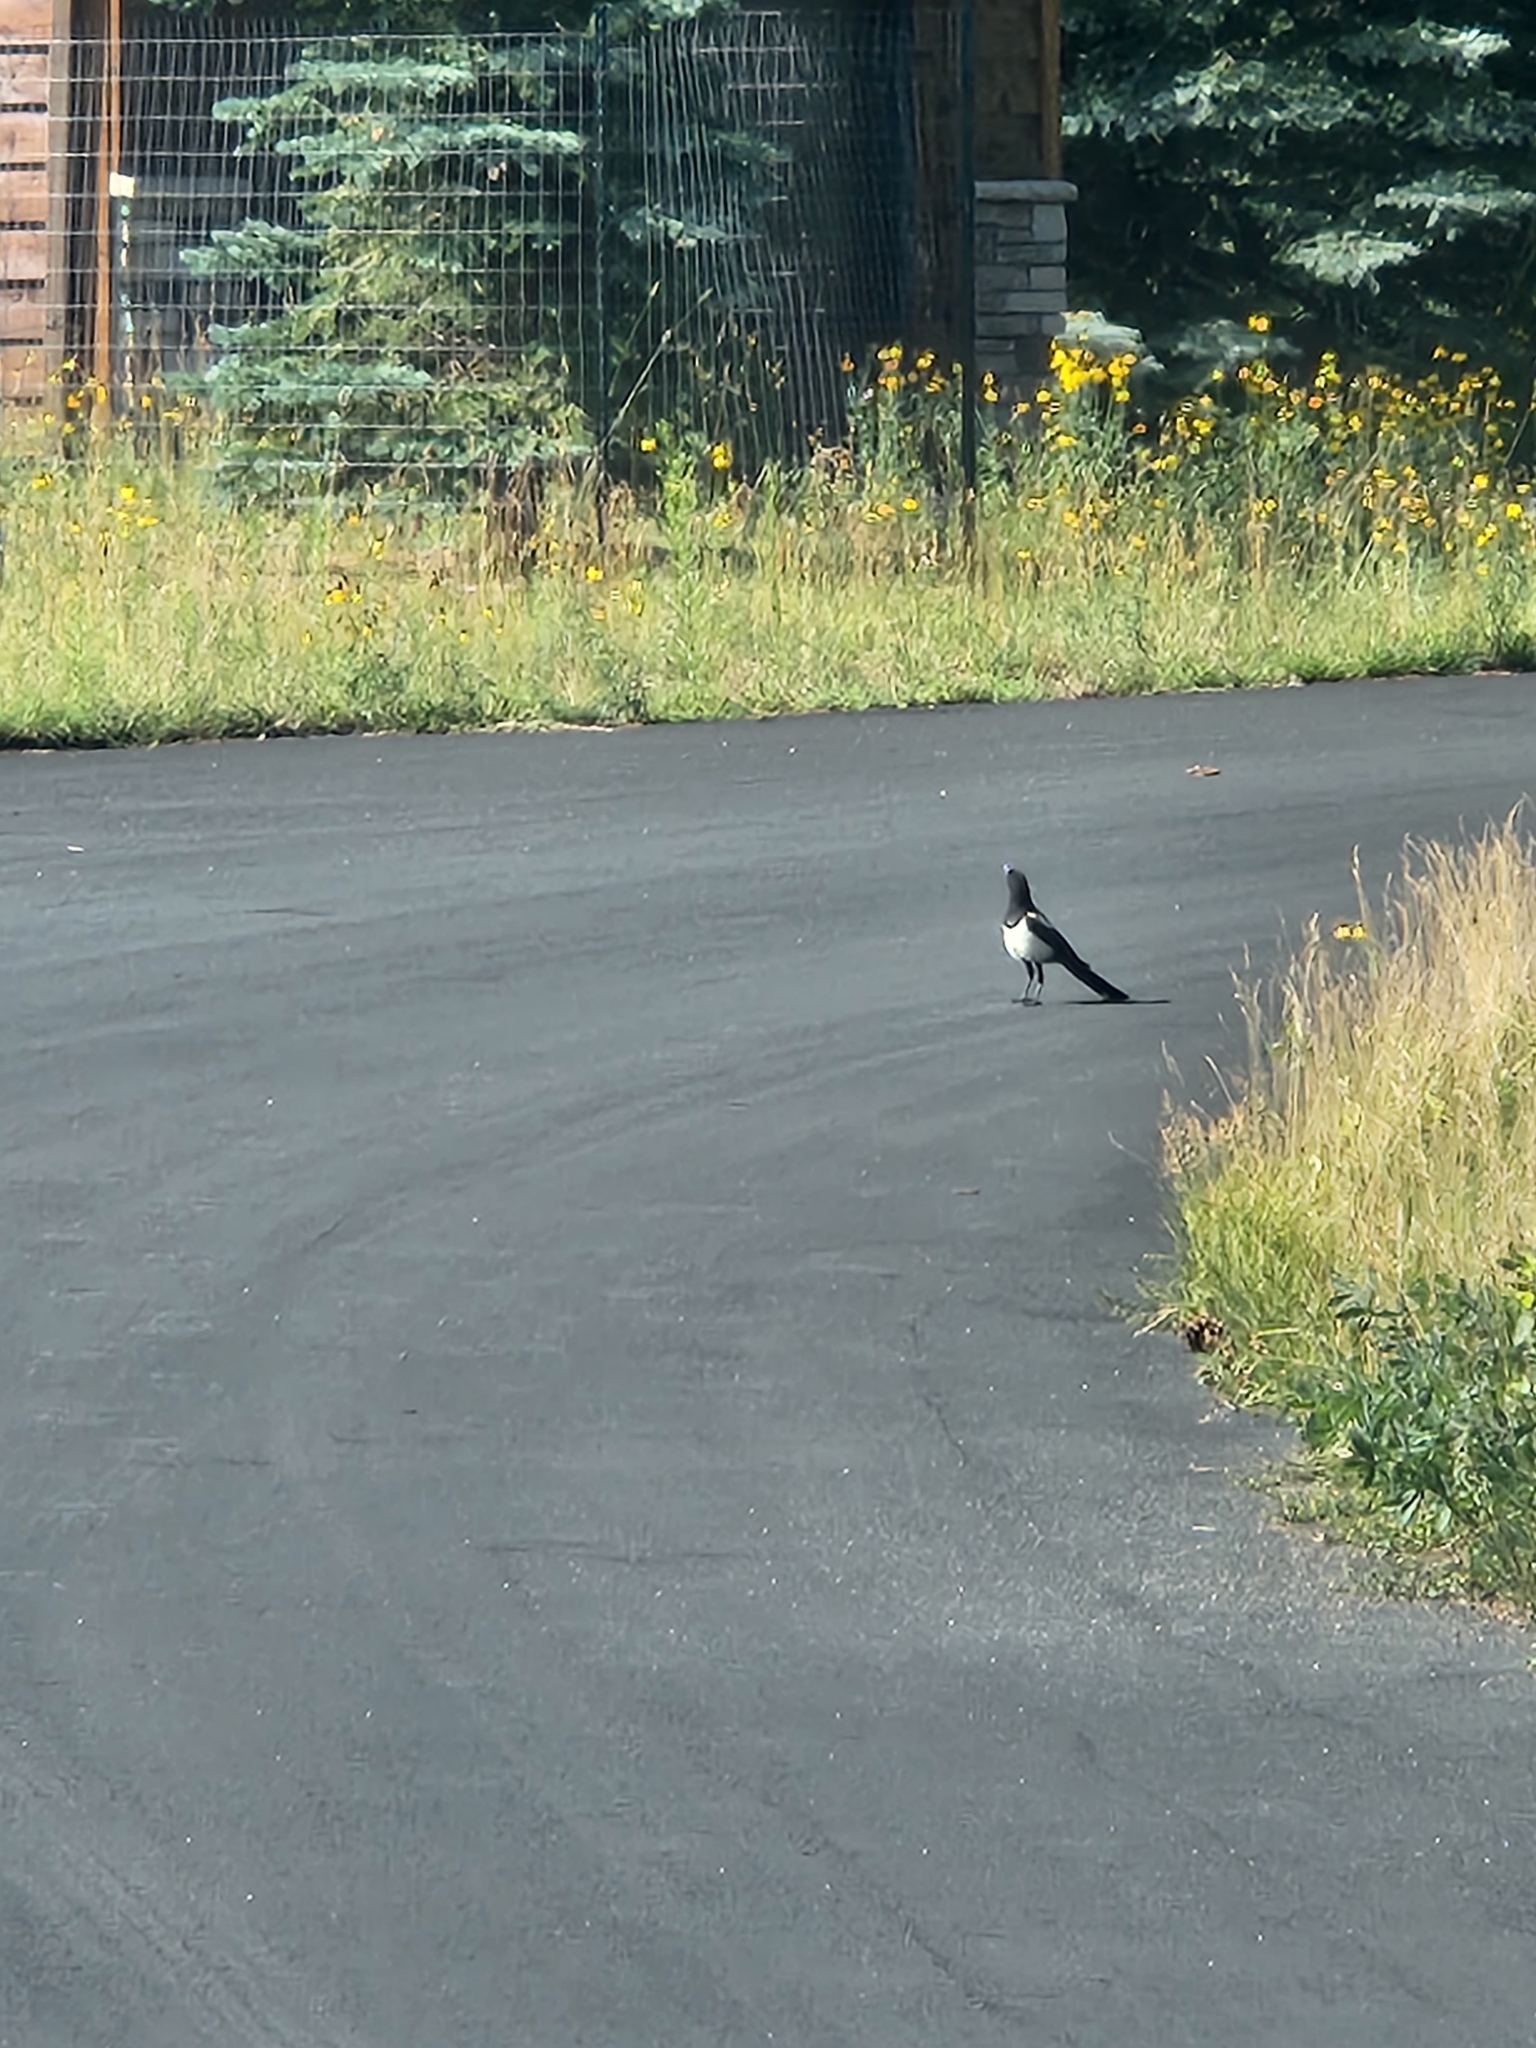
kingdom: Animalia
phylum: Chordata
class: Aves
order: Passeriformes
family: Corvidae
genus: Pica
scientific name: Pica hudsonia
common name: Black-billed magpie
